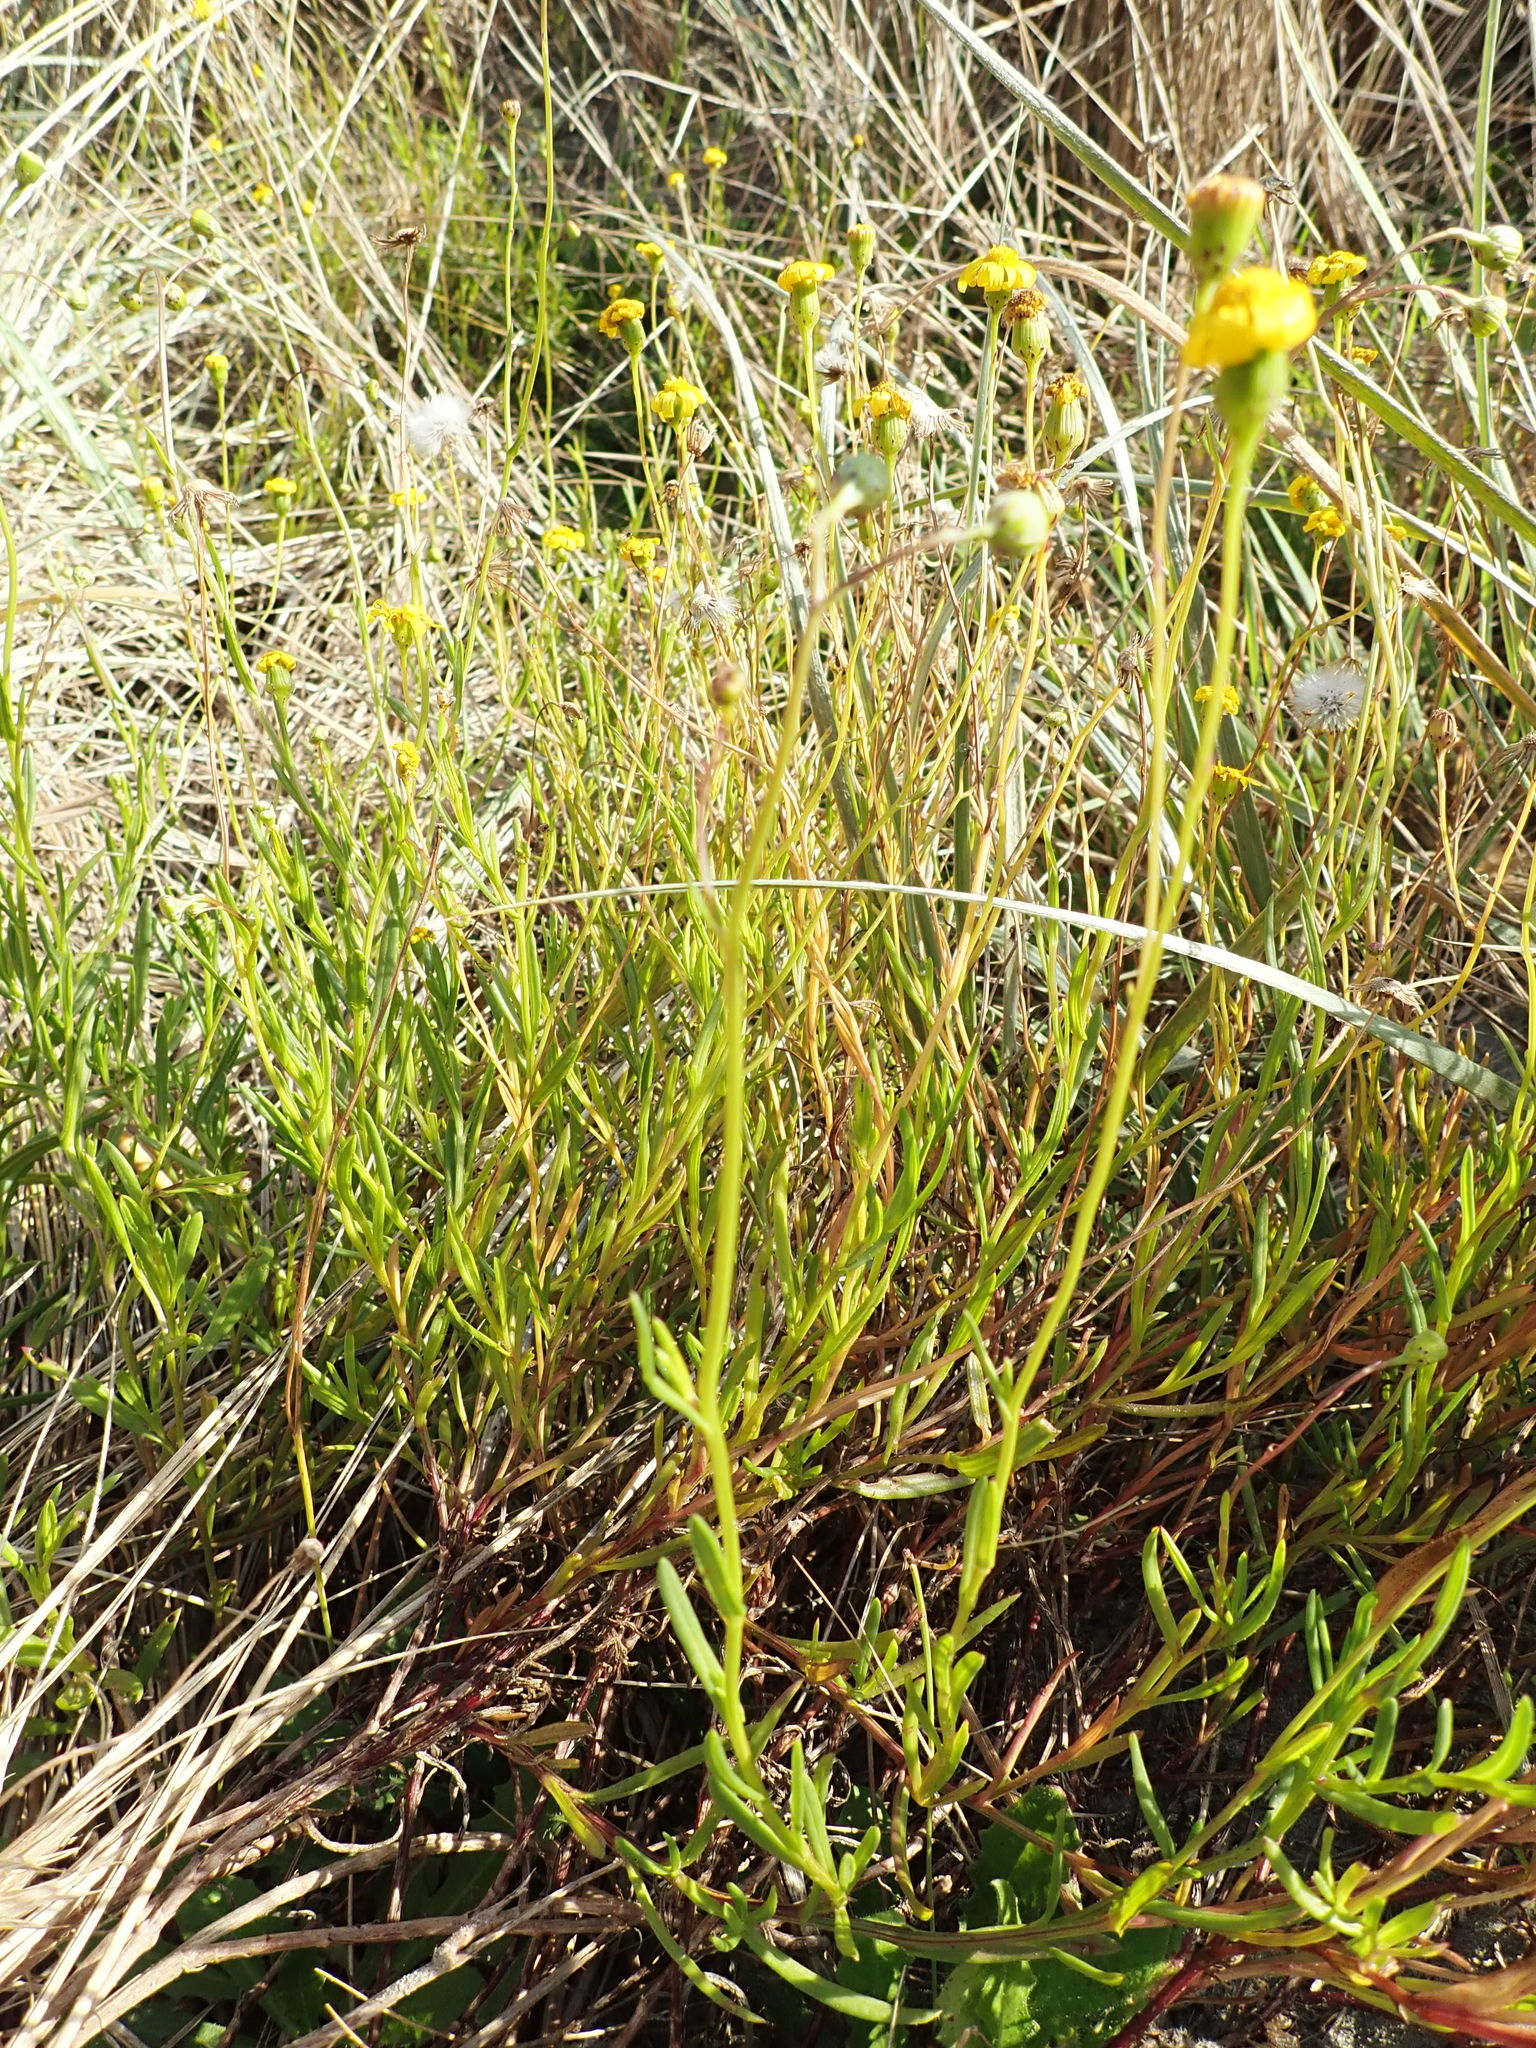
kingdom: Plantae
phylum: Tracheophyta
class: Magnoliopsida
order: Asterales
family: Asteraceae
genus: Senecio
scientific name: Senecio skirrhodon
